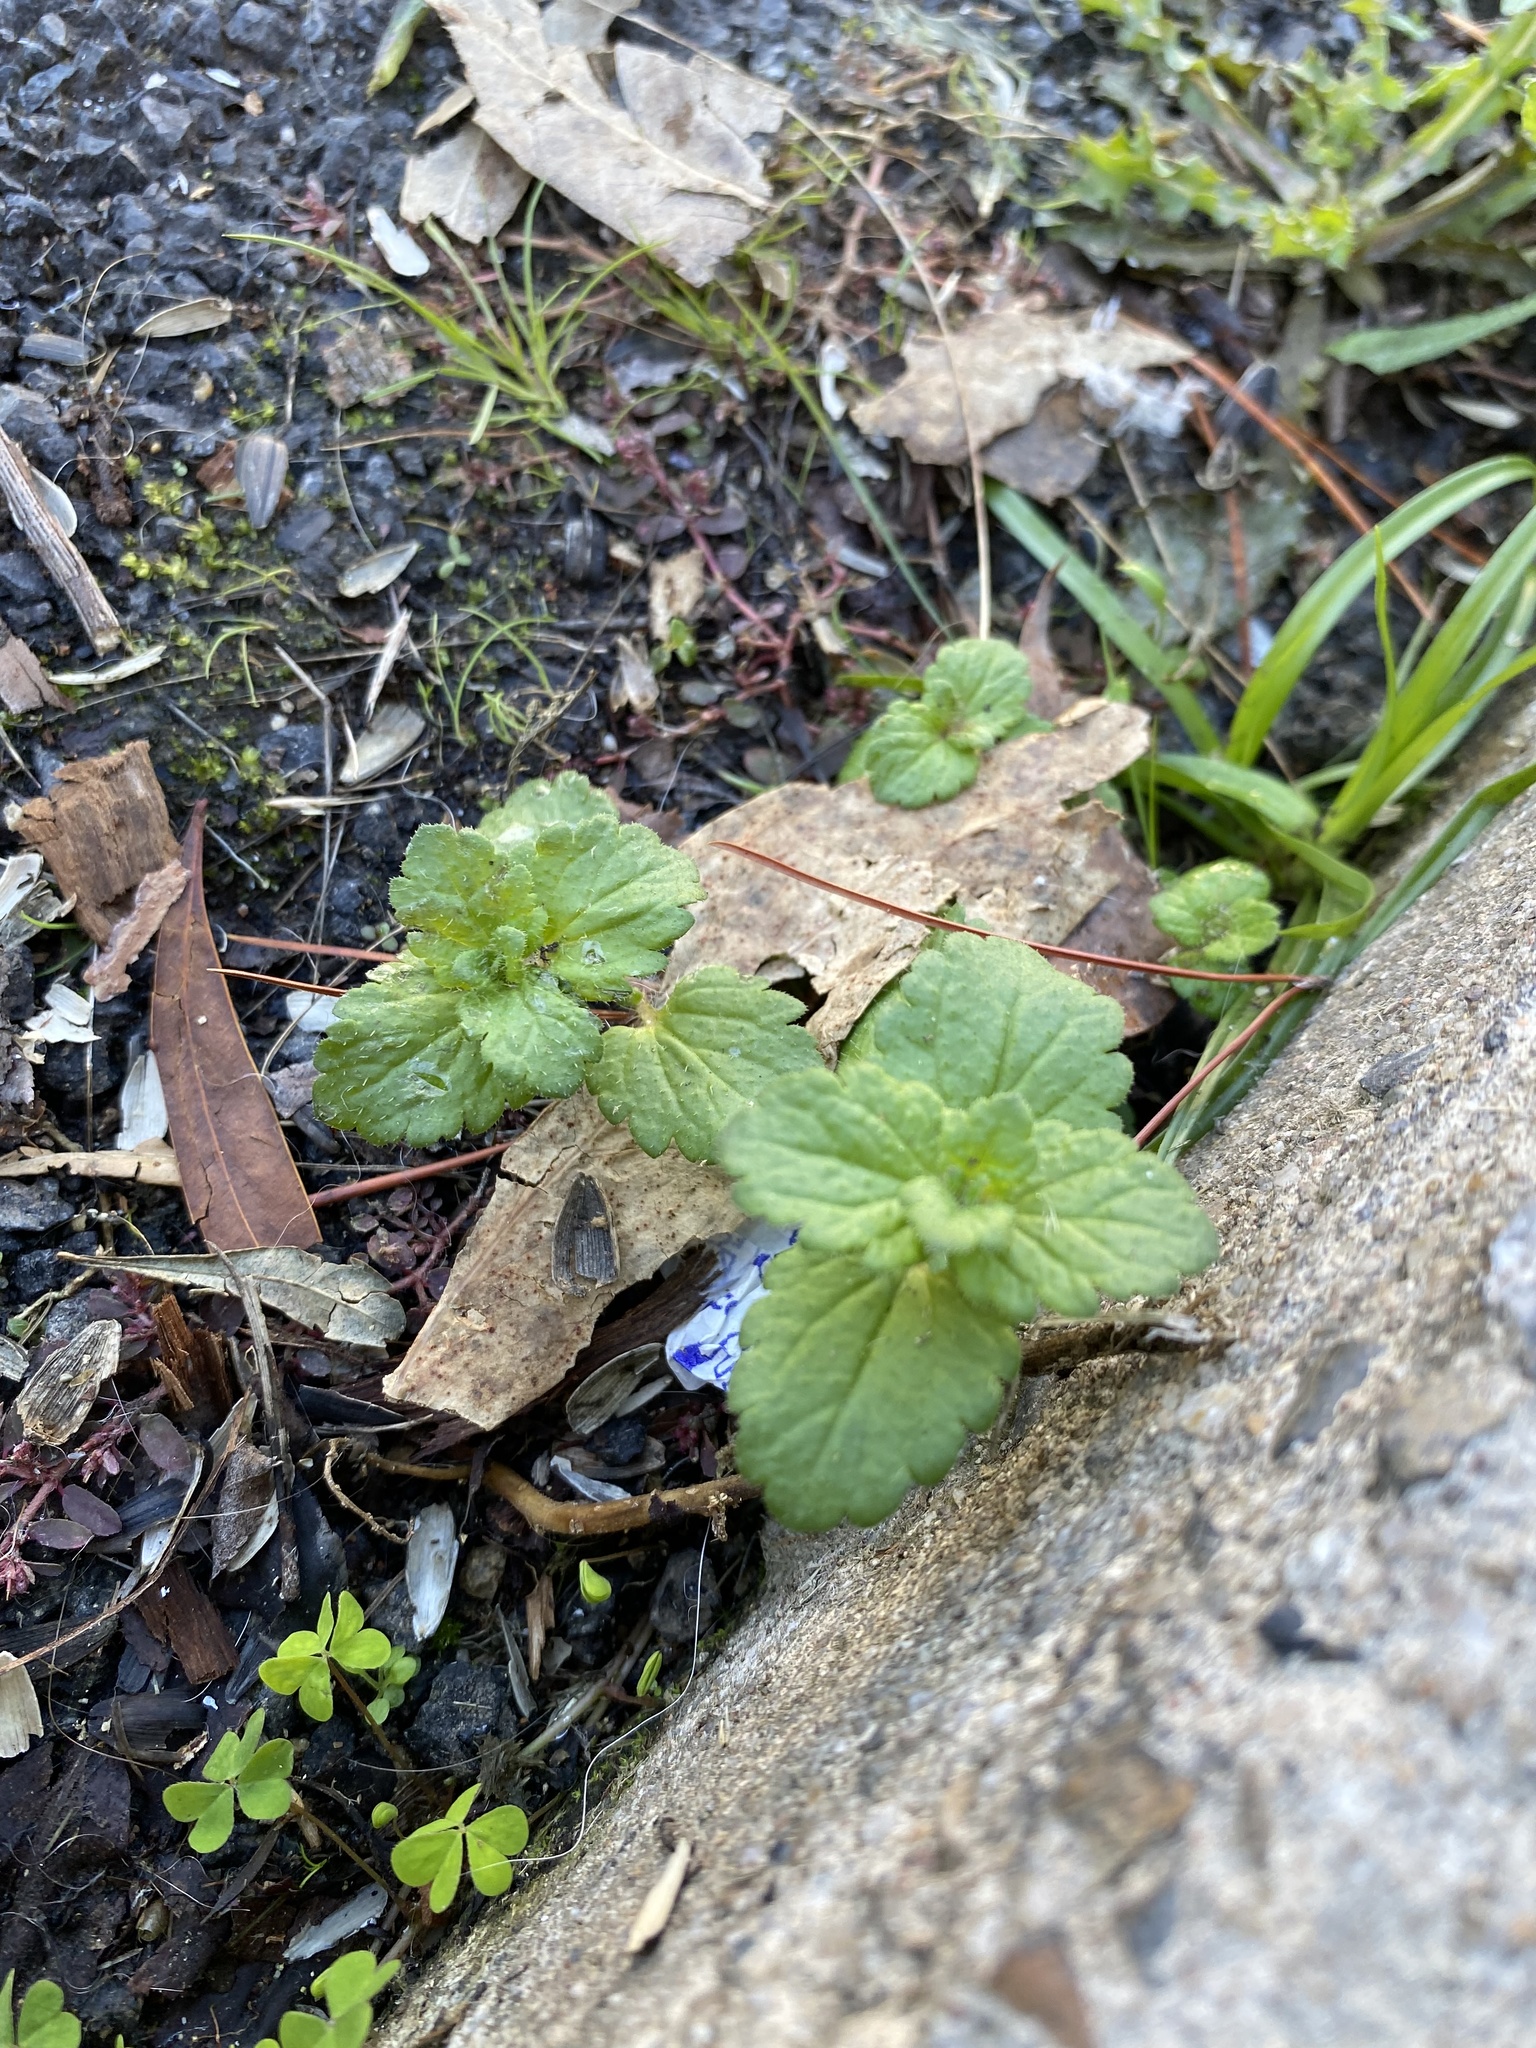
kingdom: Plantae
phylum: Tracheophyta
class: Magnoliopsida
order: Lamiales
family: Plantaginaceae
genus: Veronica
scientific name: Veronica persica
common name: Common field-speedwell
